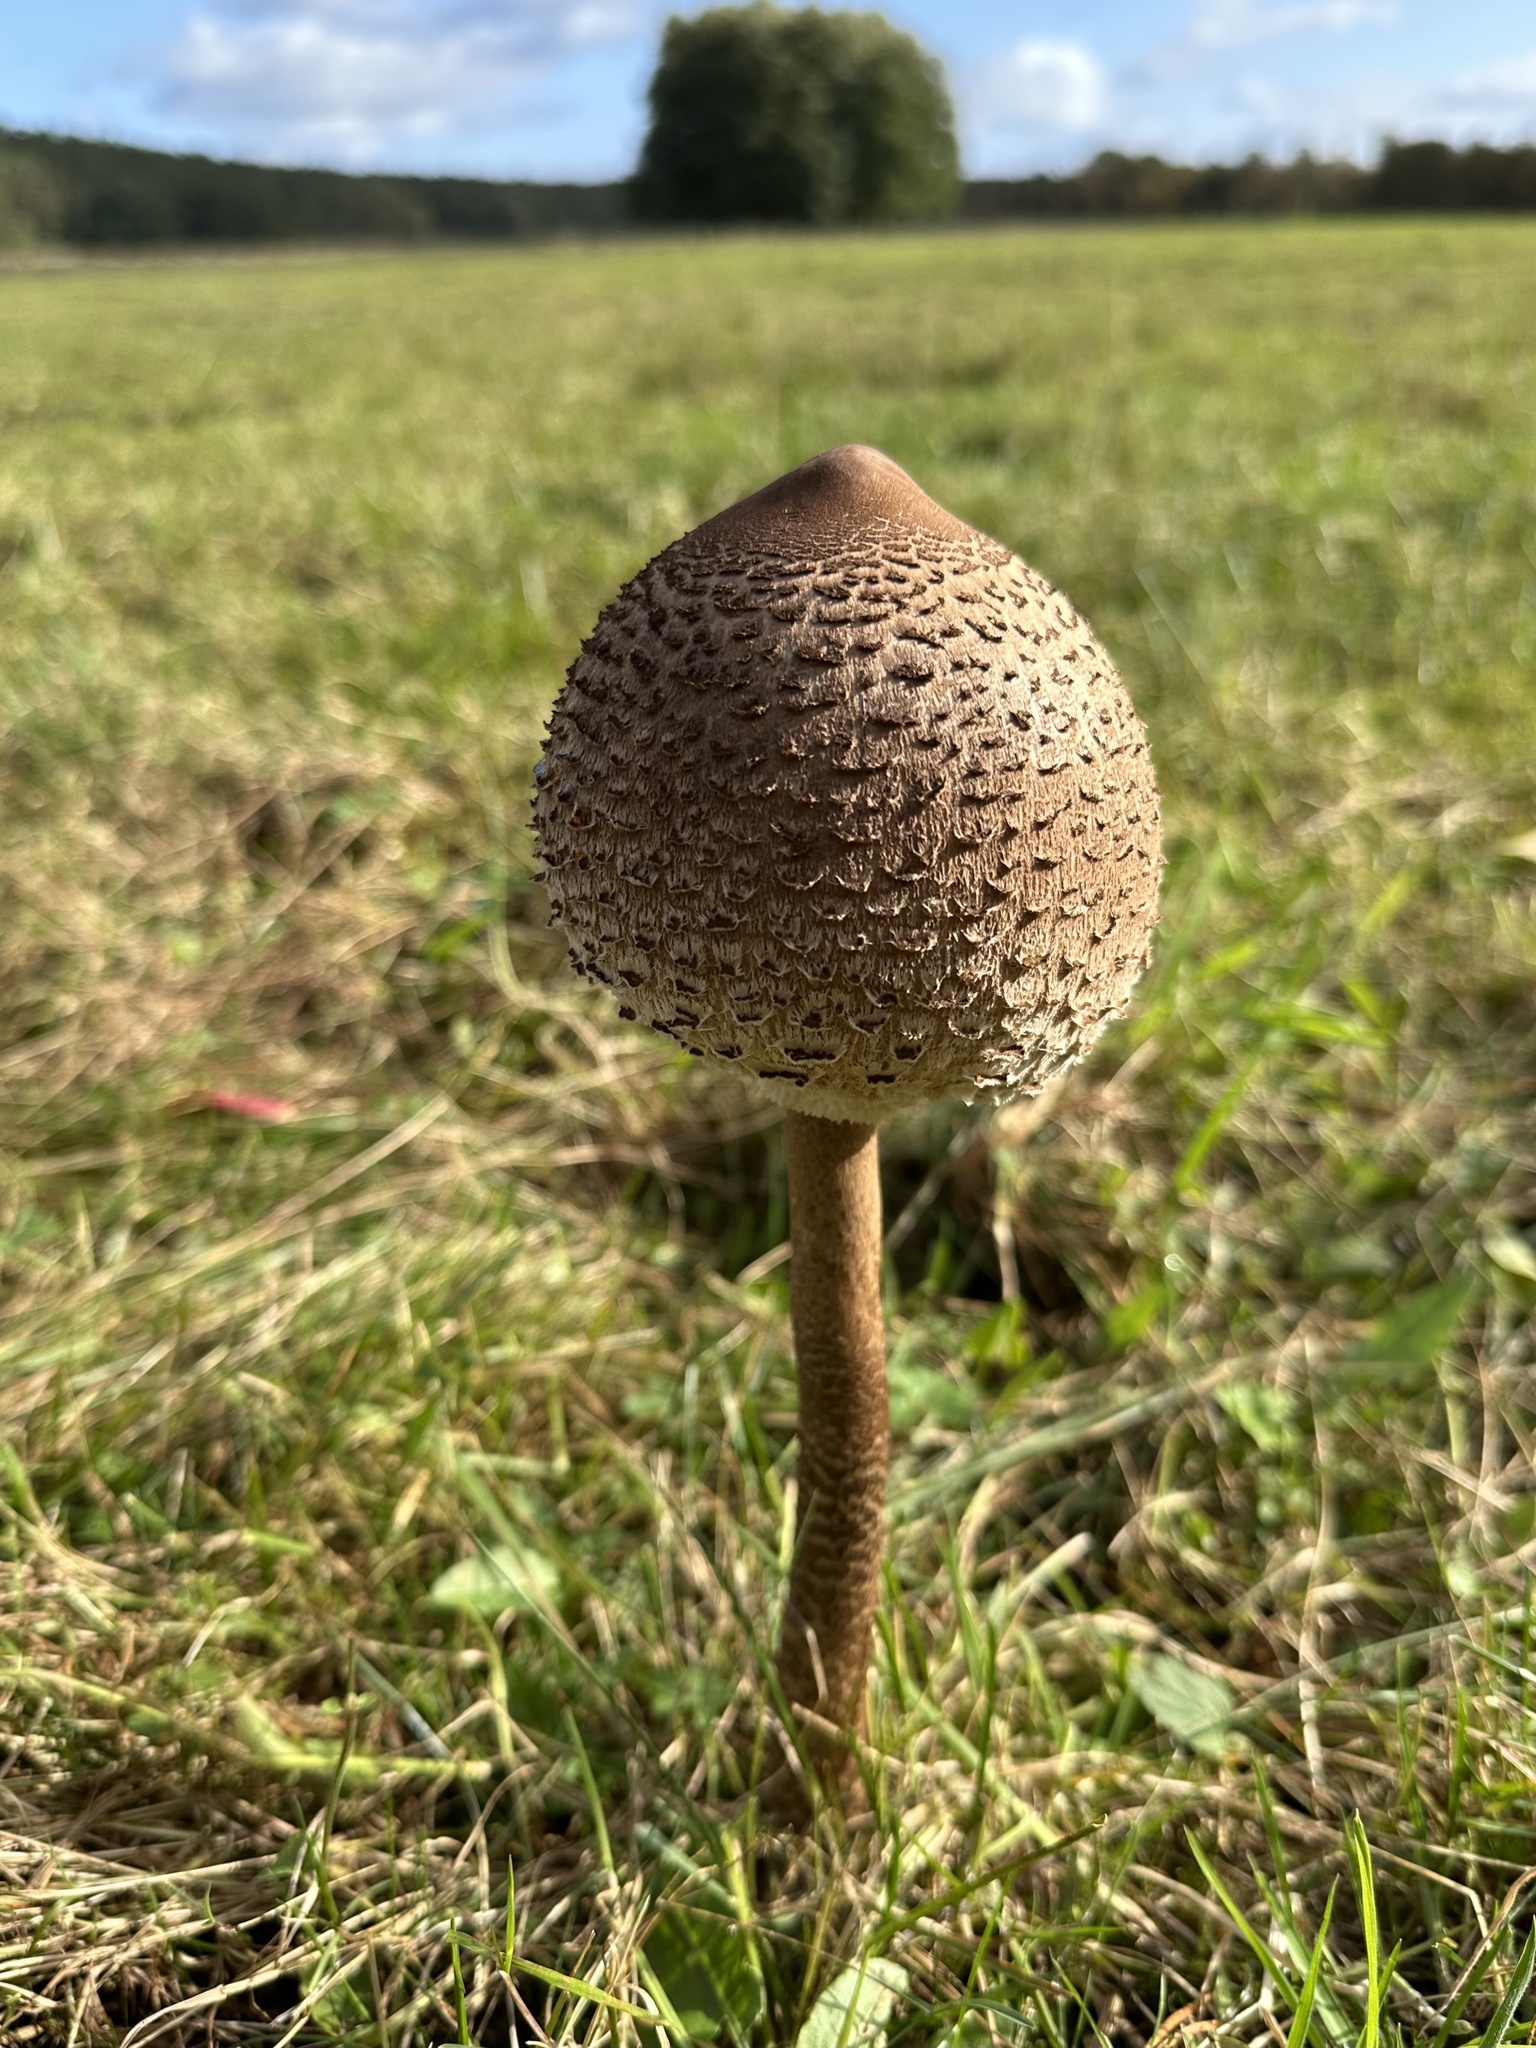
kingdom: Fungi
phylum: Basidiomycota
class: Agaricomycetes
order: Agaricales
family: Agaricaceae
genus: Macrolepiota
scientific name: Macrolepiota procera
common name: Parasol
